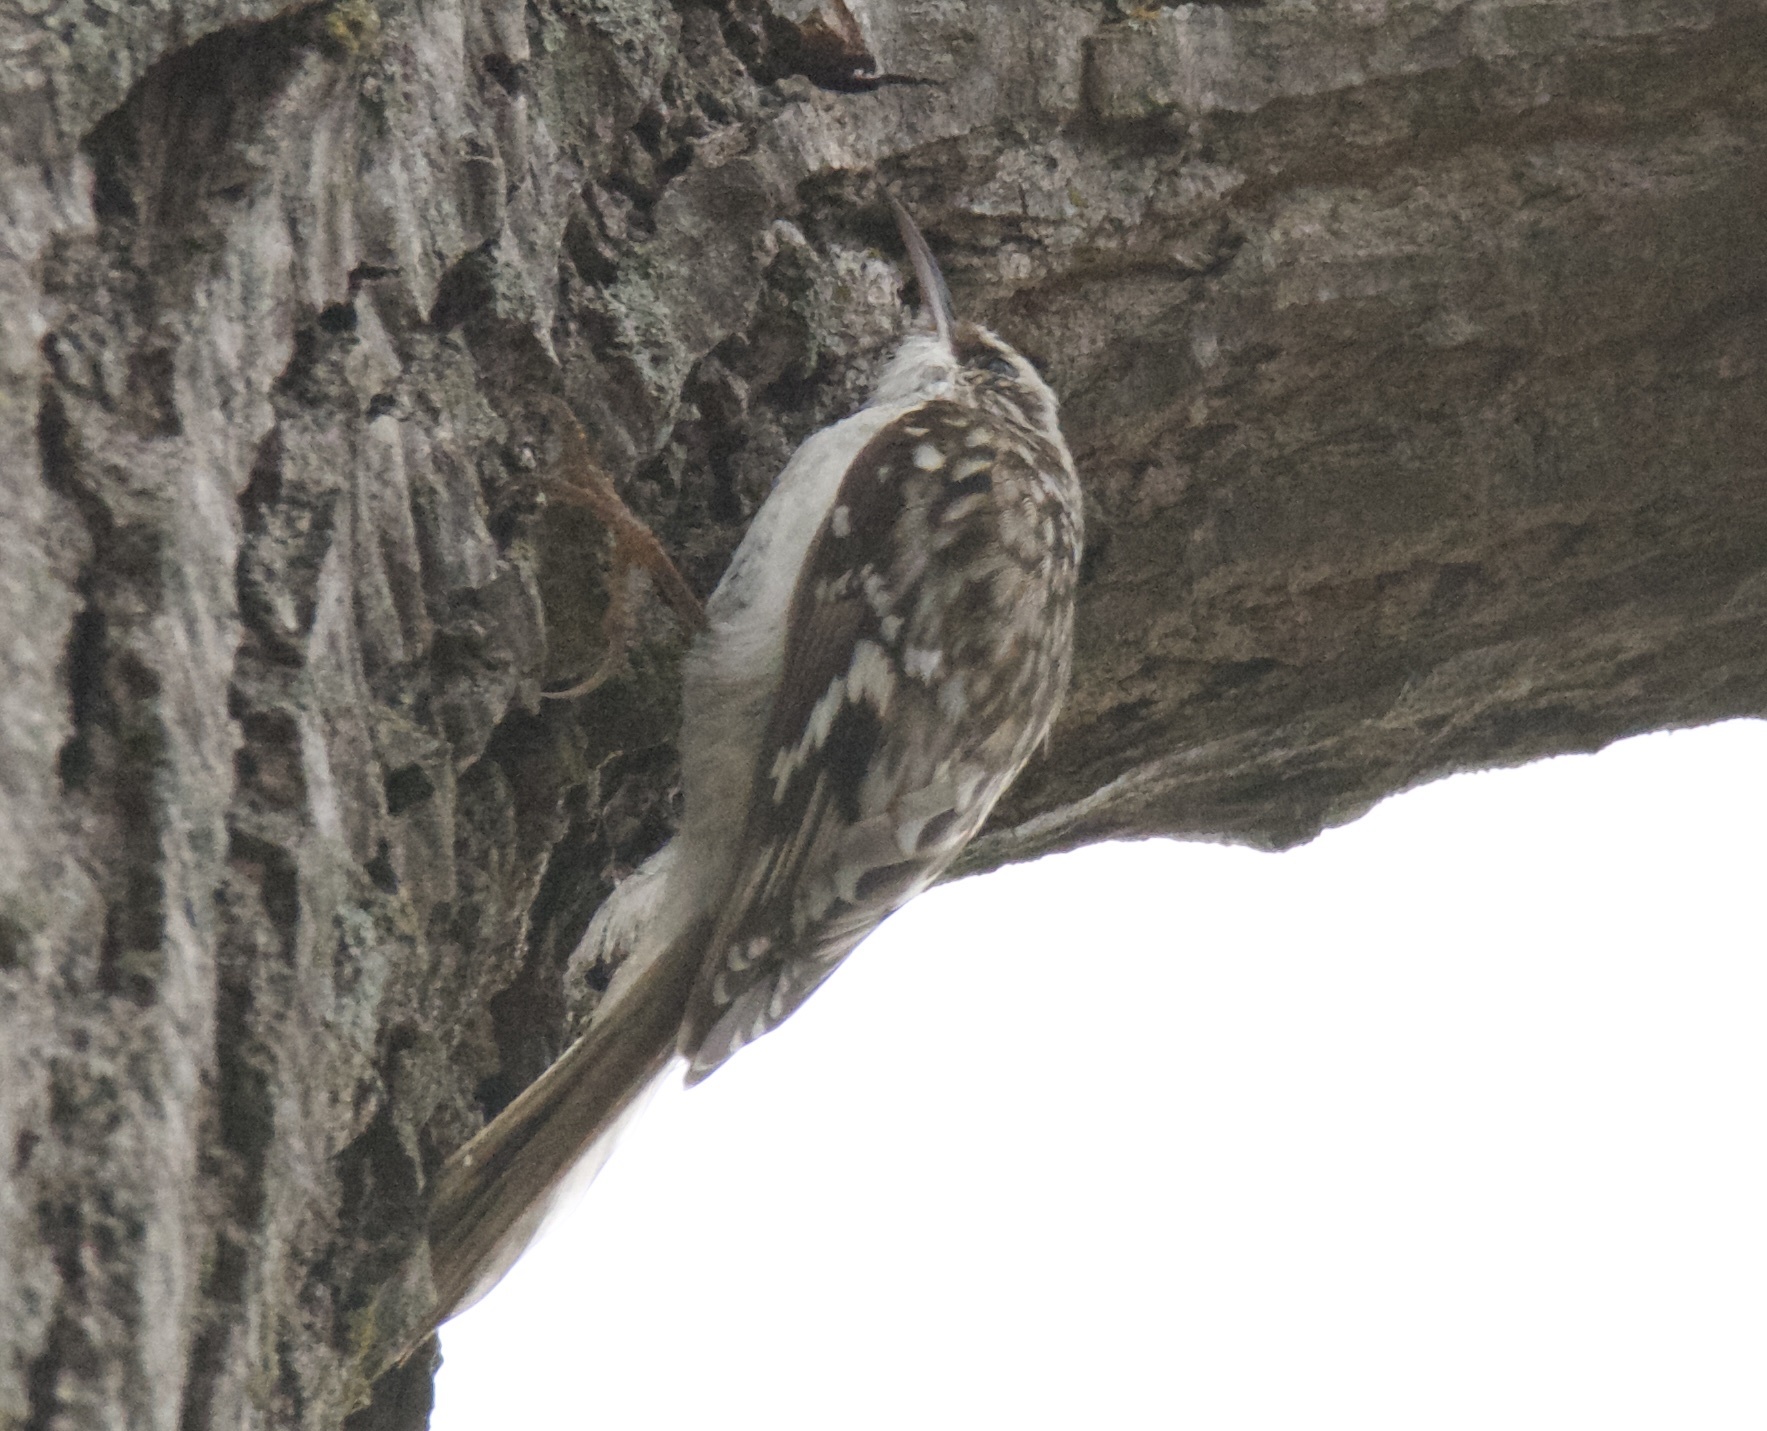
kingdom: Animalia
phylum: Chordata
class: Aves
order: Passeriformes
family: Certhiidae
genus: Certhia
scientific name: Certhia americana
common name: Brown creeper
